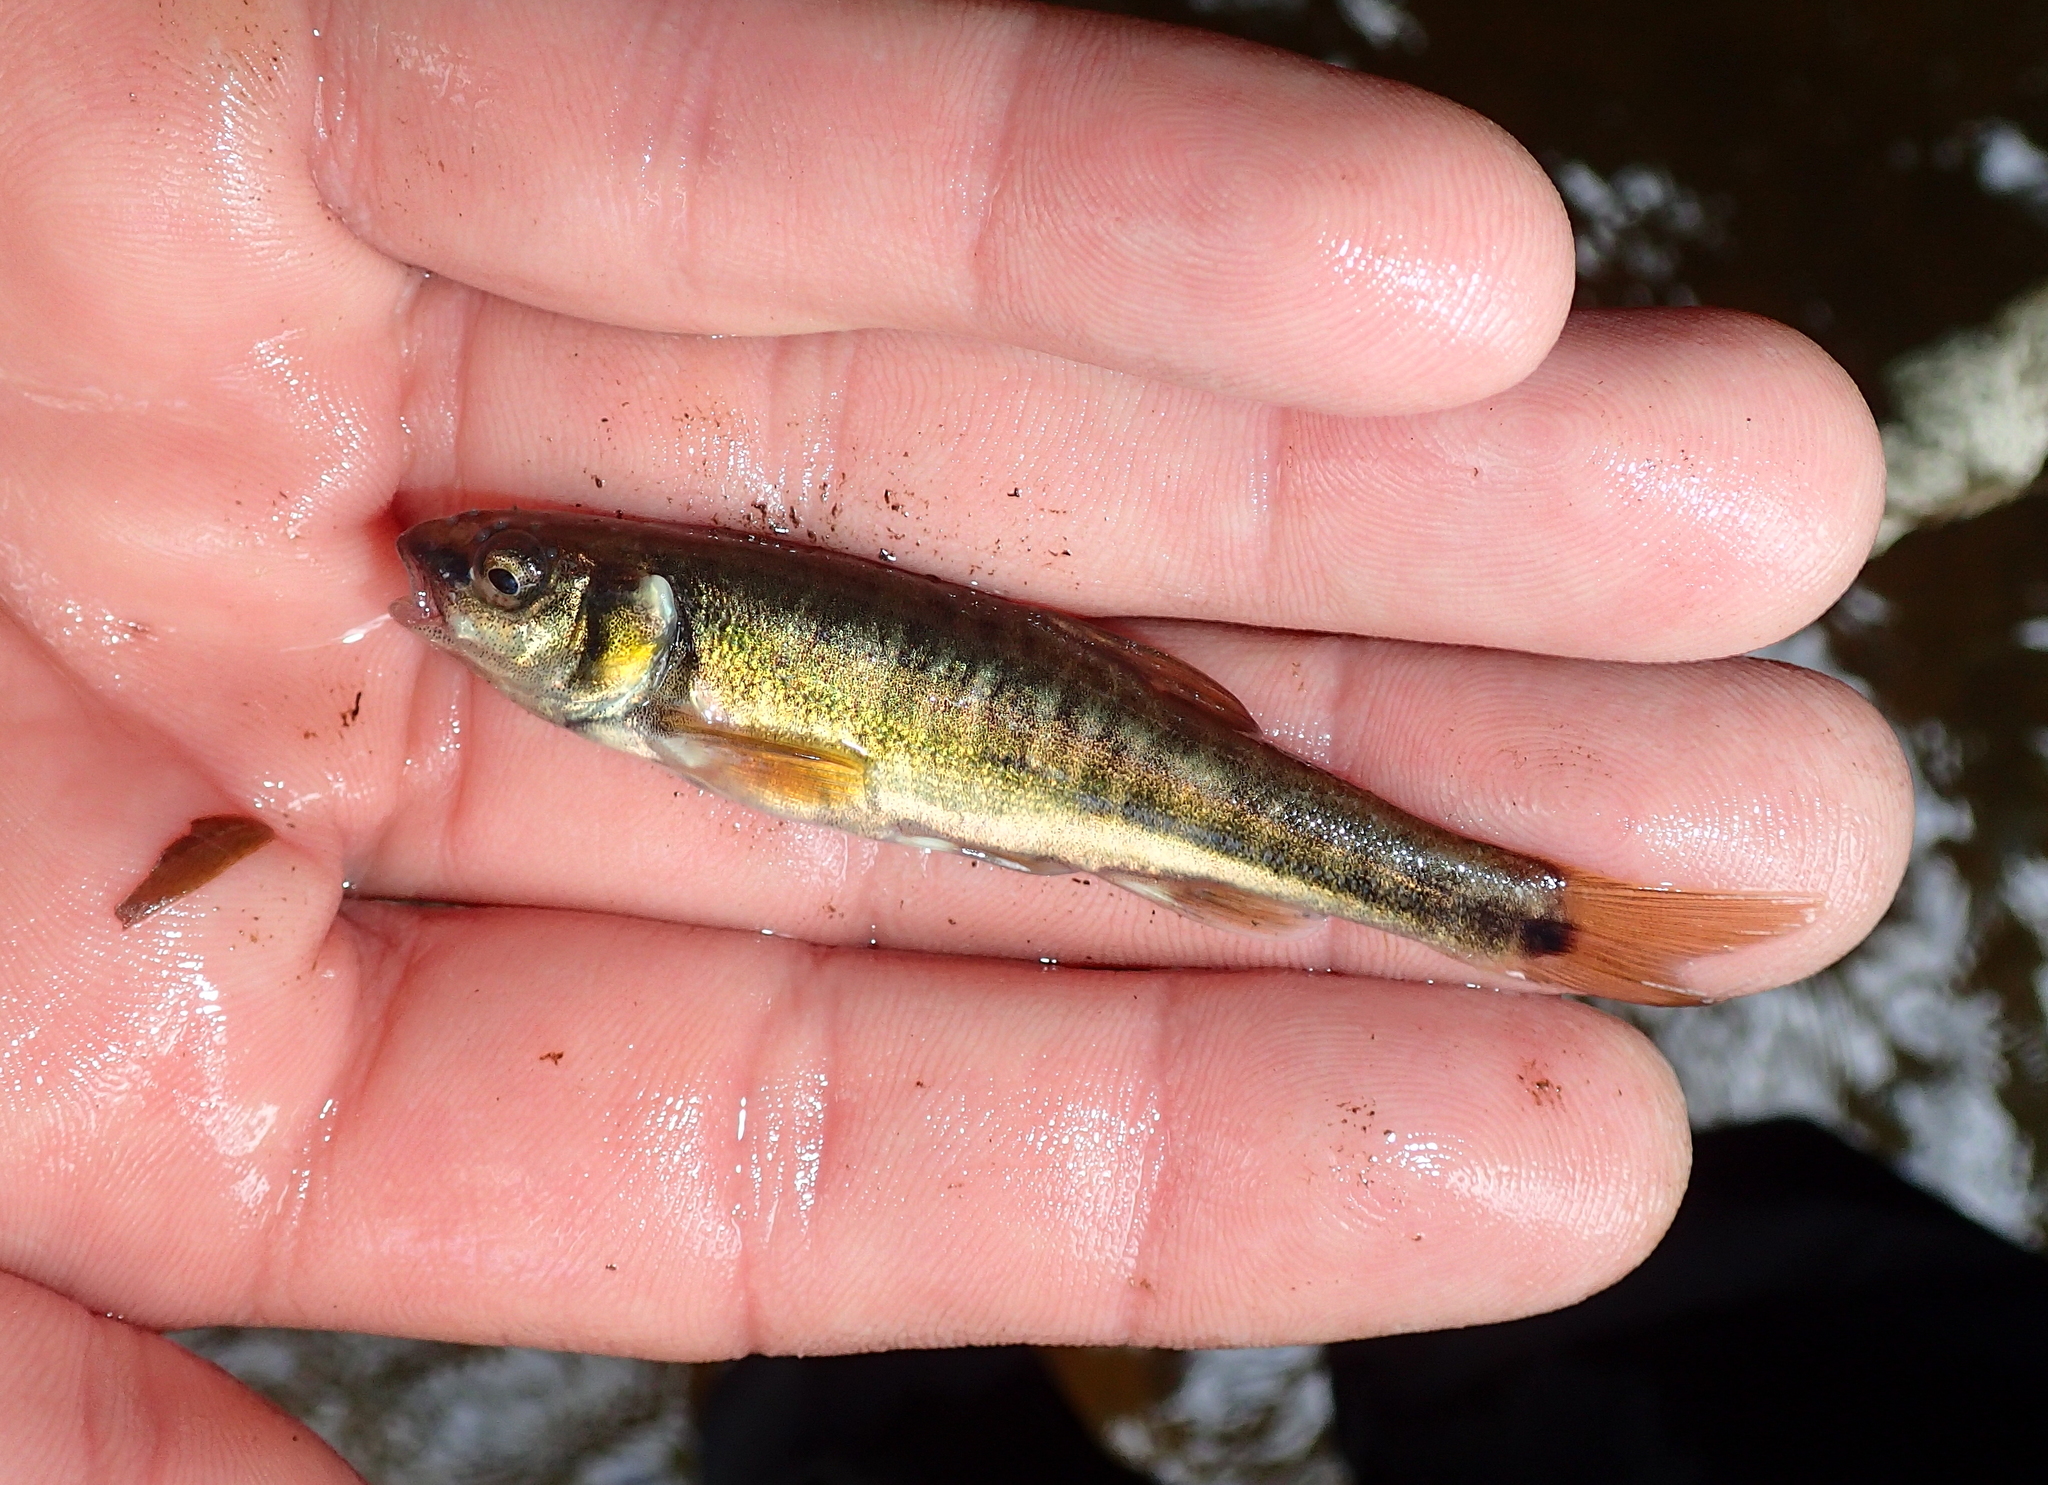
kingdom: Animalia
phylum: Chordata
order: Cypriniformes
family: Cyprinidae
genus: Phoxinus
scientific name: Phoxinus fayollarum
